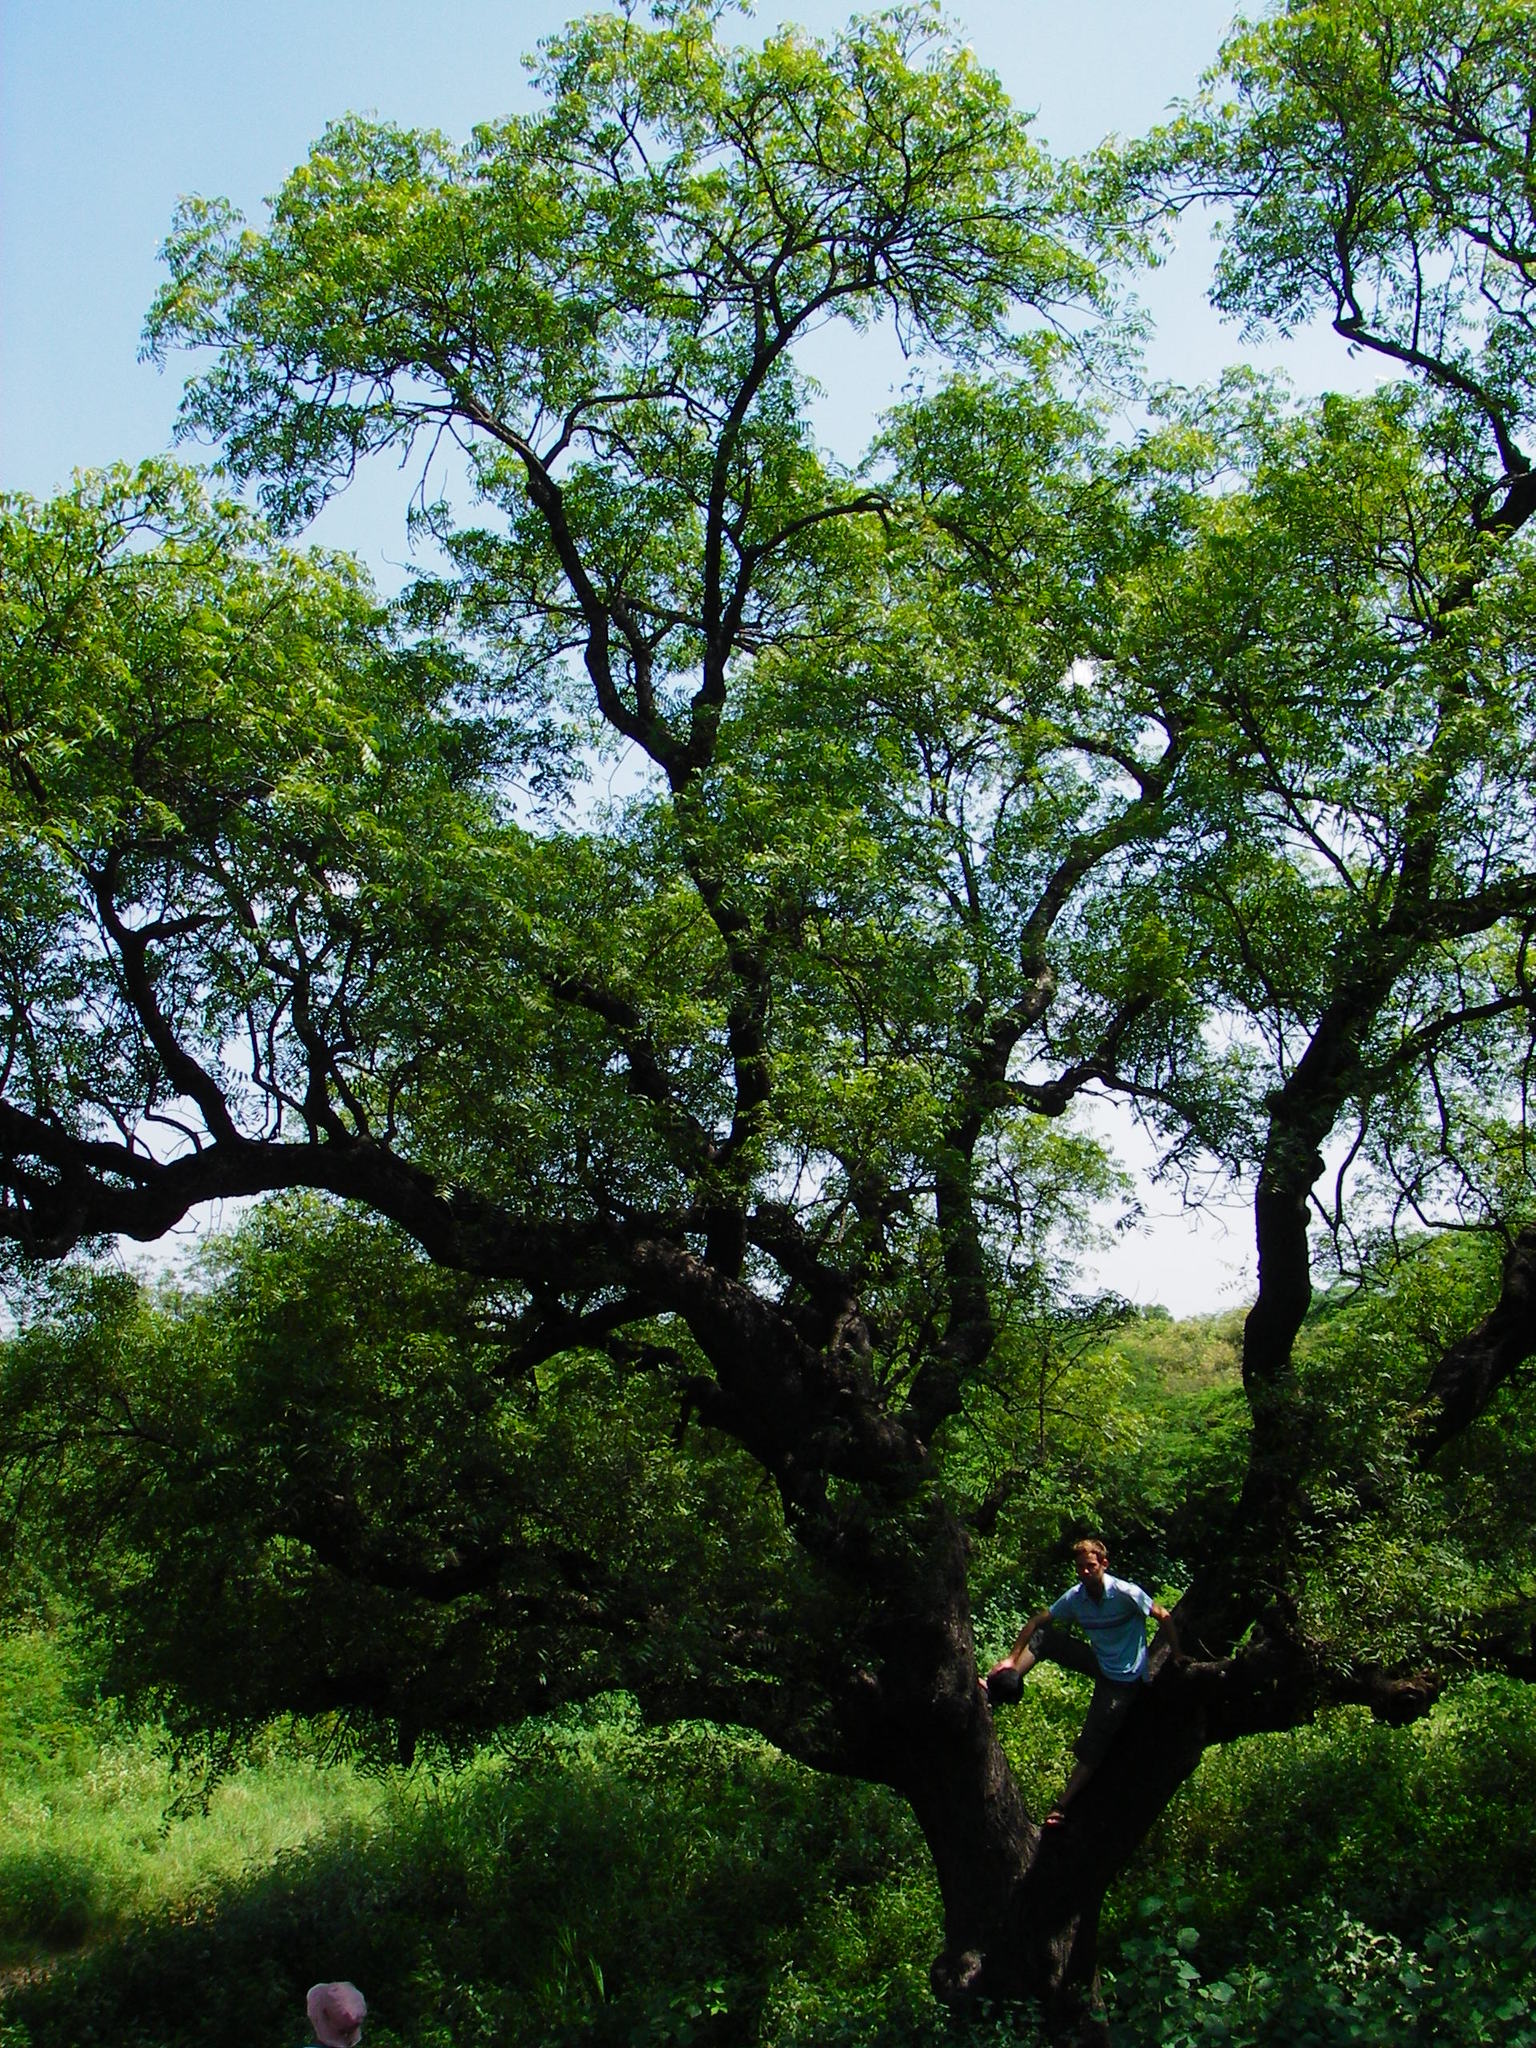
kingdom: Plantae
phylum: Tracheophyta
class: Magnoliopsida
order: Sapindales
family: Meliaceae
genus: Azadirachta
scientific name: Azadirachta indica
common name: Neem
